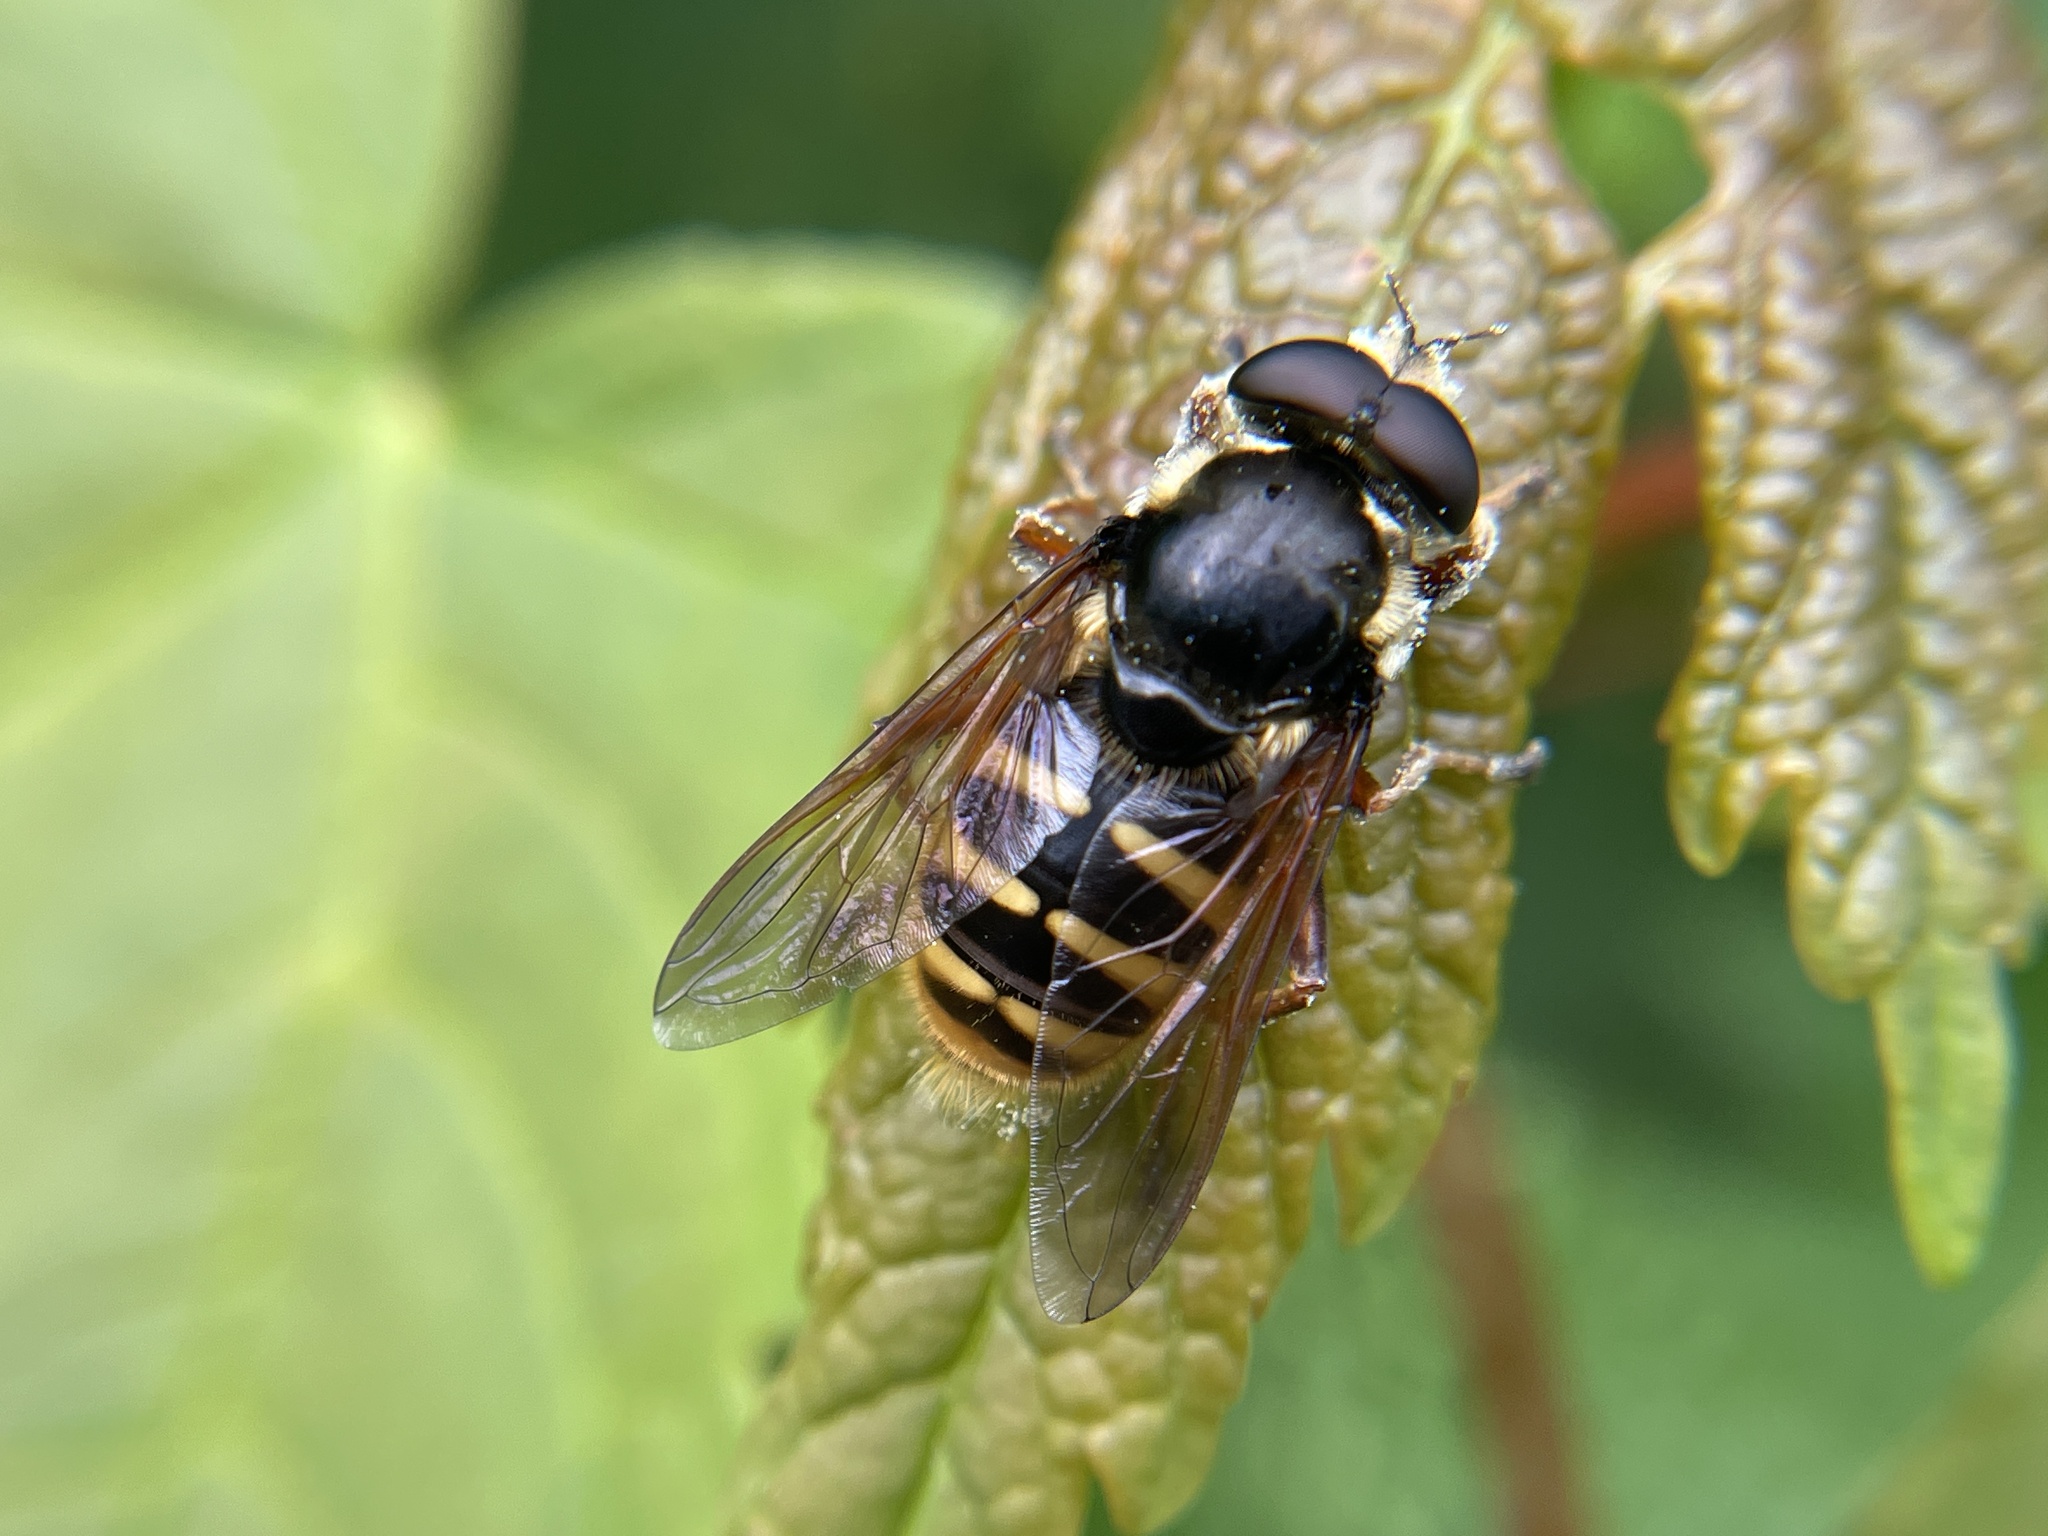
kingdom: Animalia
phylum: Arthropoda
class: Insecta
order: Diptera
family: Syrphidae
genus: Sericomyia
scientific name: Sericomyia silentis
